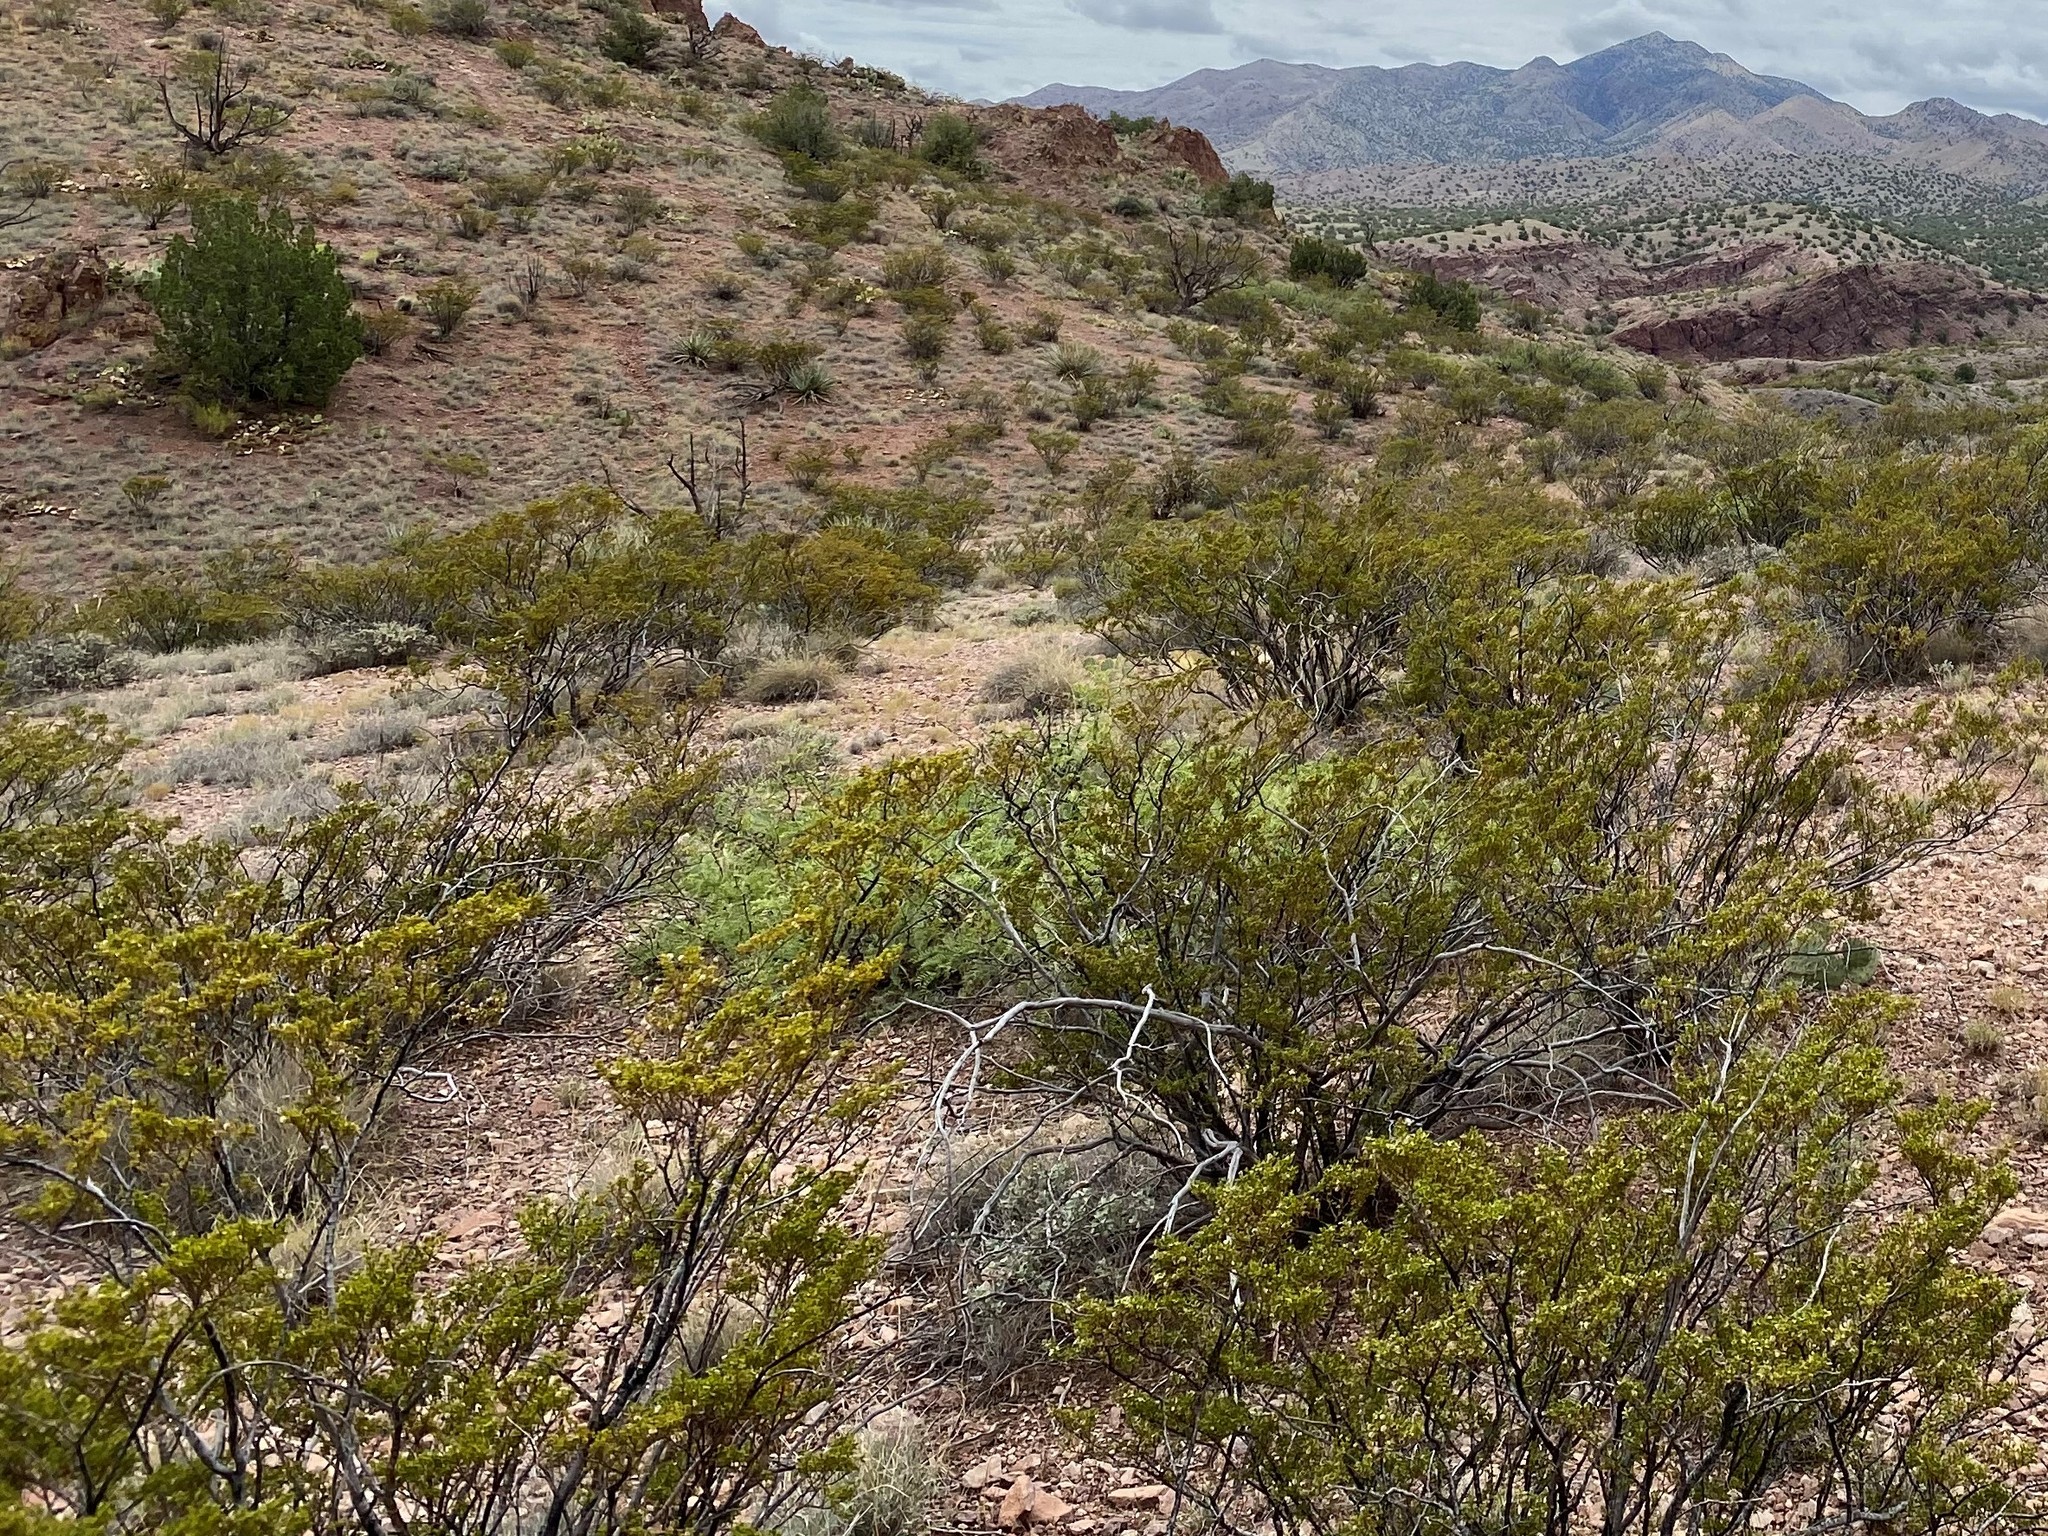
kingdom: Plantae
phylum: Tracheophyta
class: Magnoliopsida
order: Zygophyllales
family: Zygophyllaceae
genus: Larrea
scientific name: Larrea tridentata
